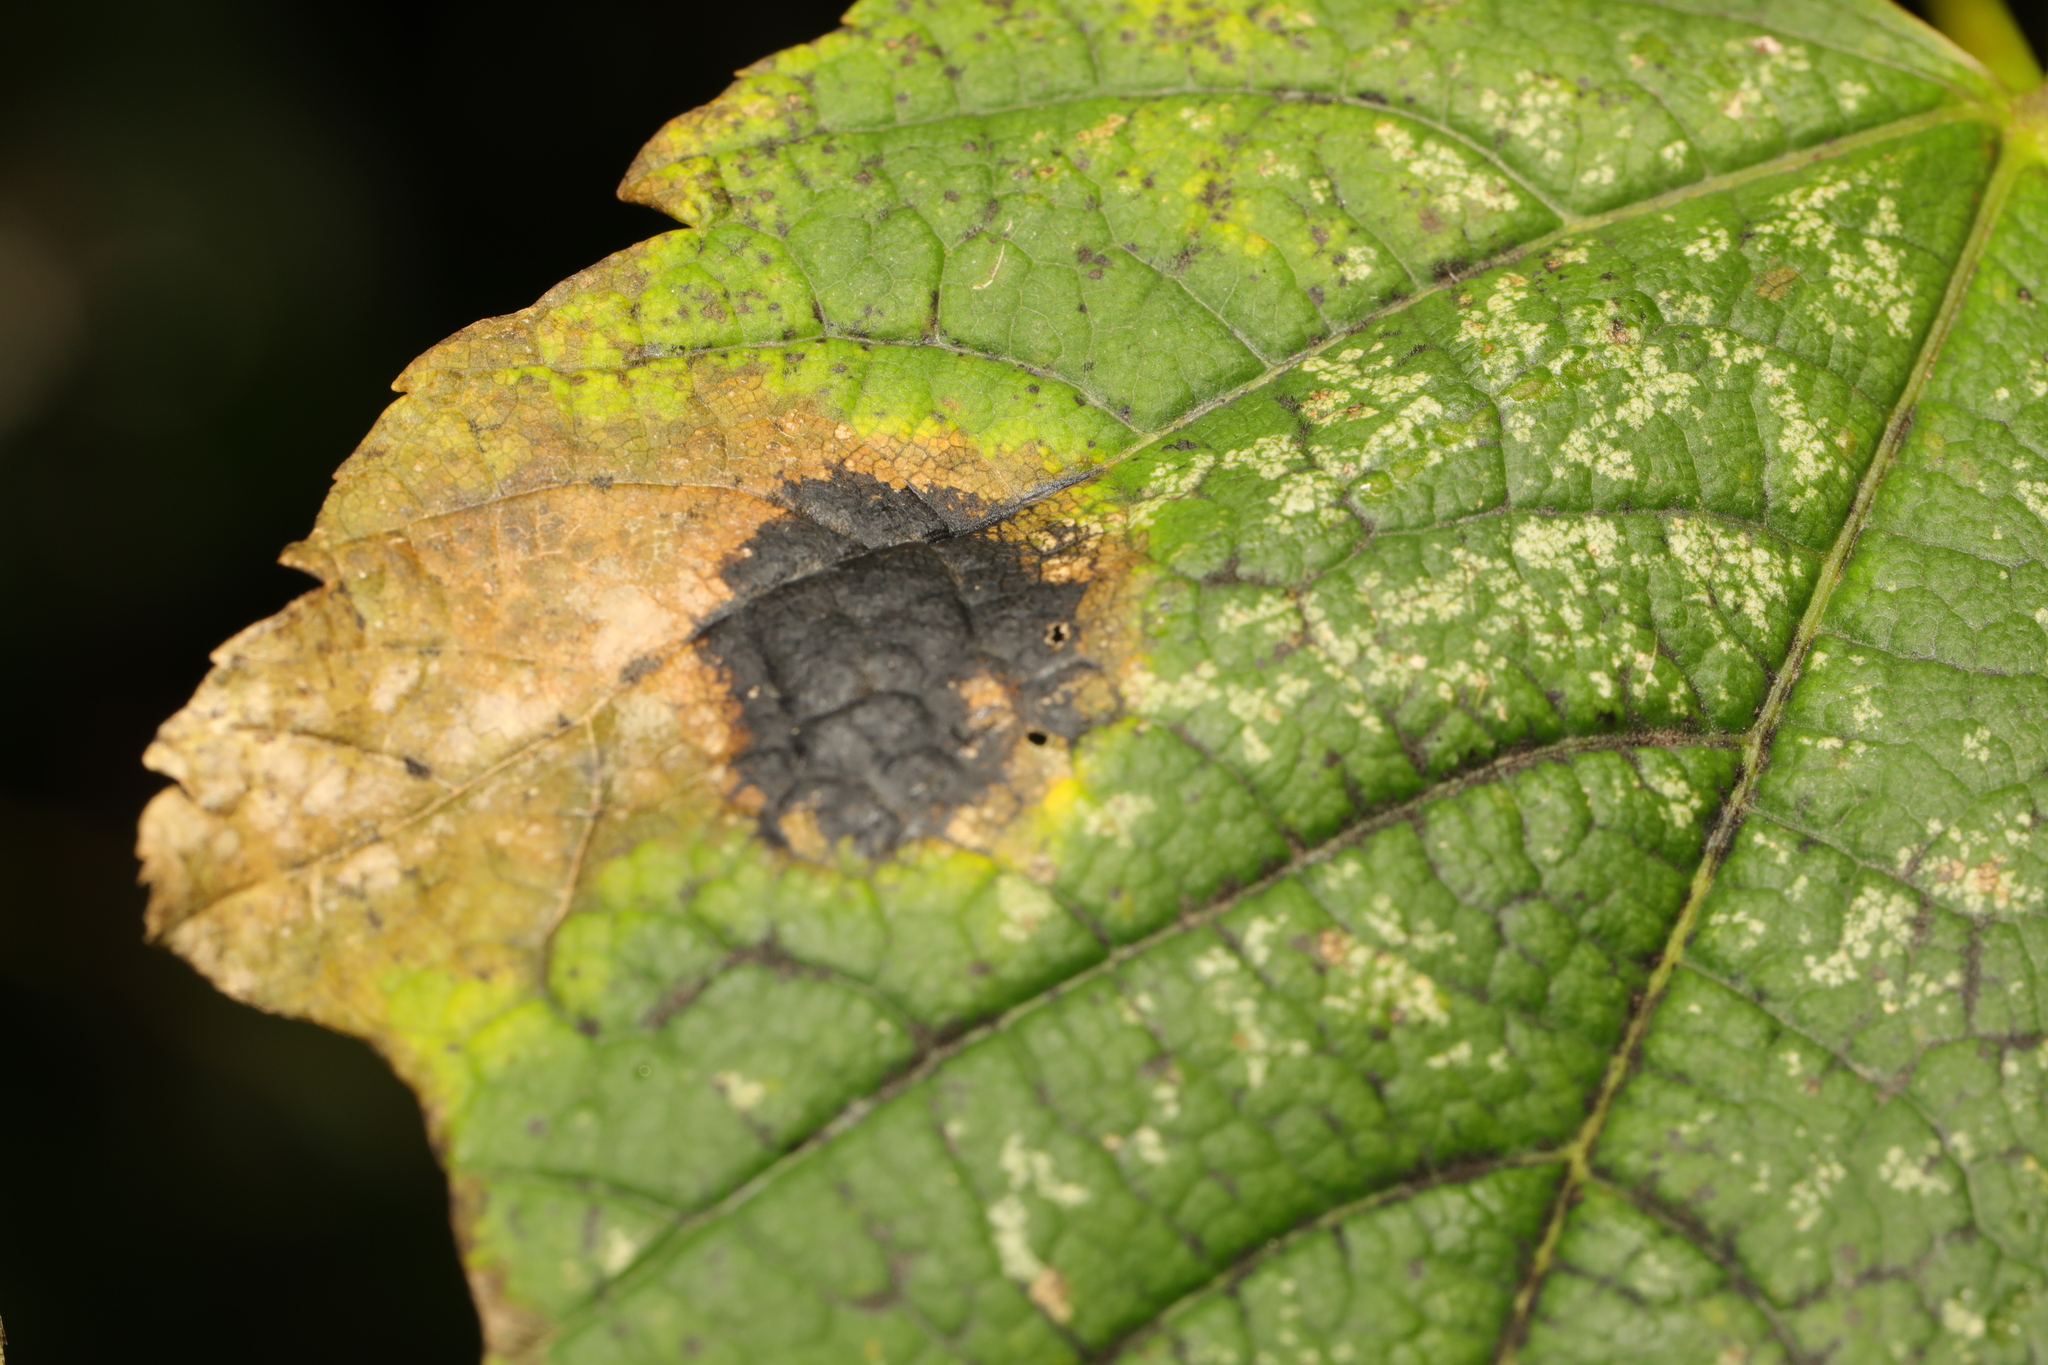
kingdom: Fungi
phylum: Ascomycota
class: Leotiomycetes
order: Rhytismatales
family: Rhytismataceae
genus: Rhytisma
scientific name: Rhytisma acerinum
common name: European tar spot
